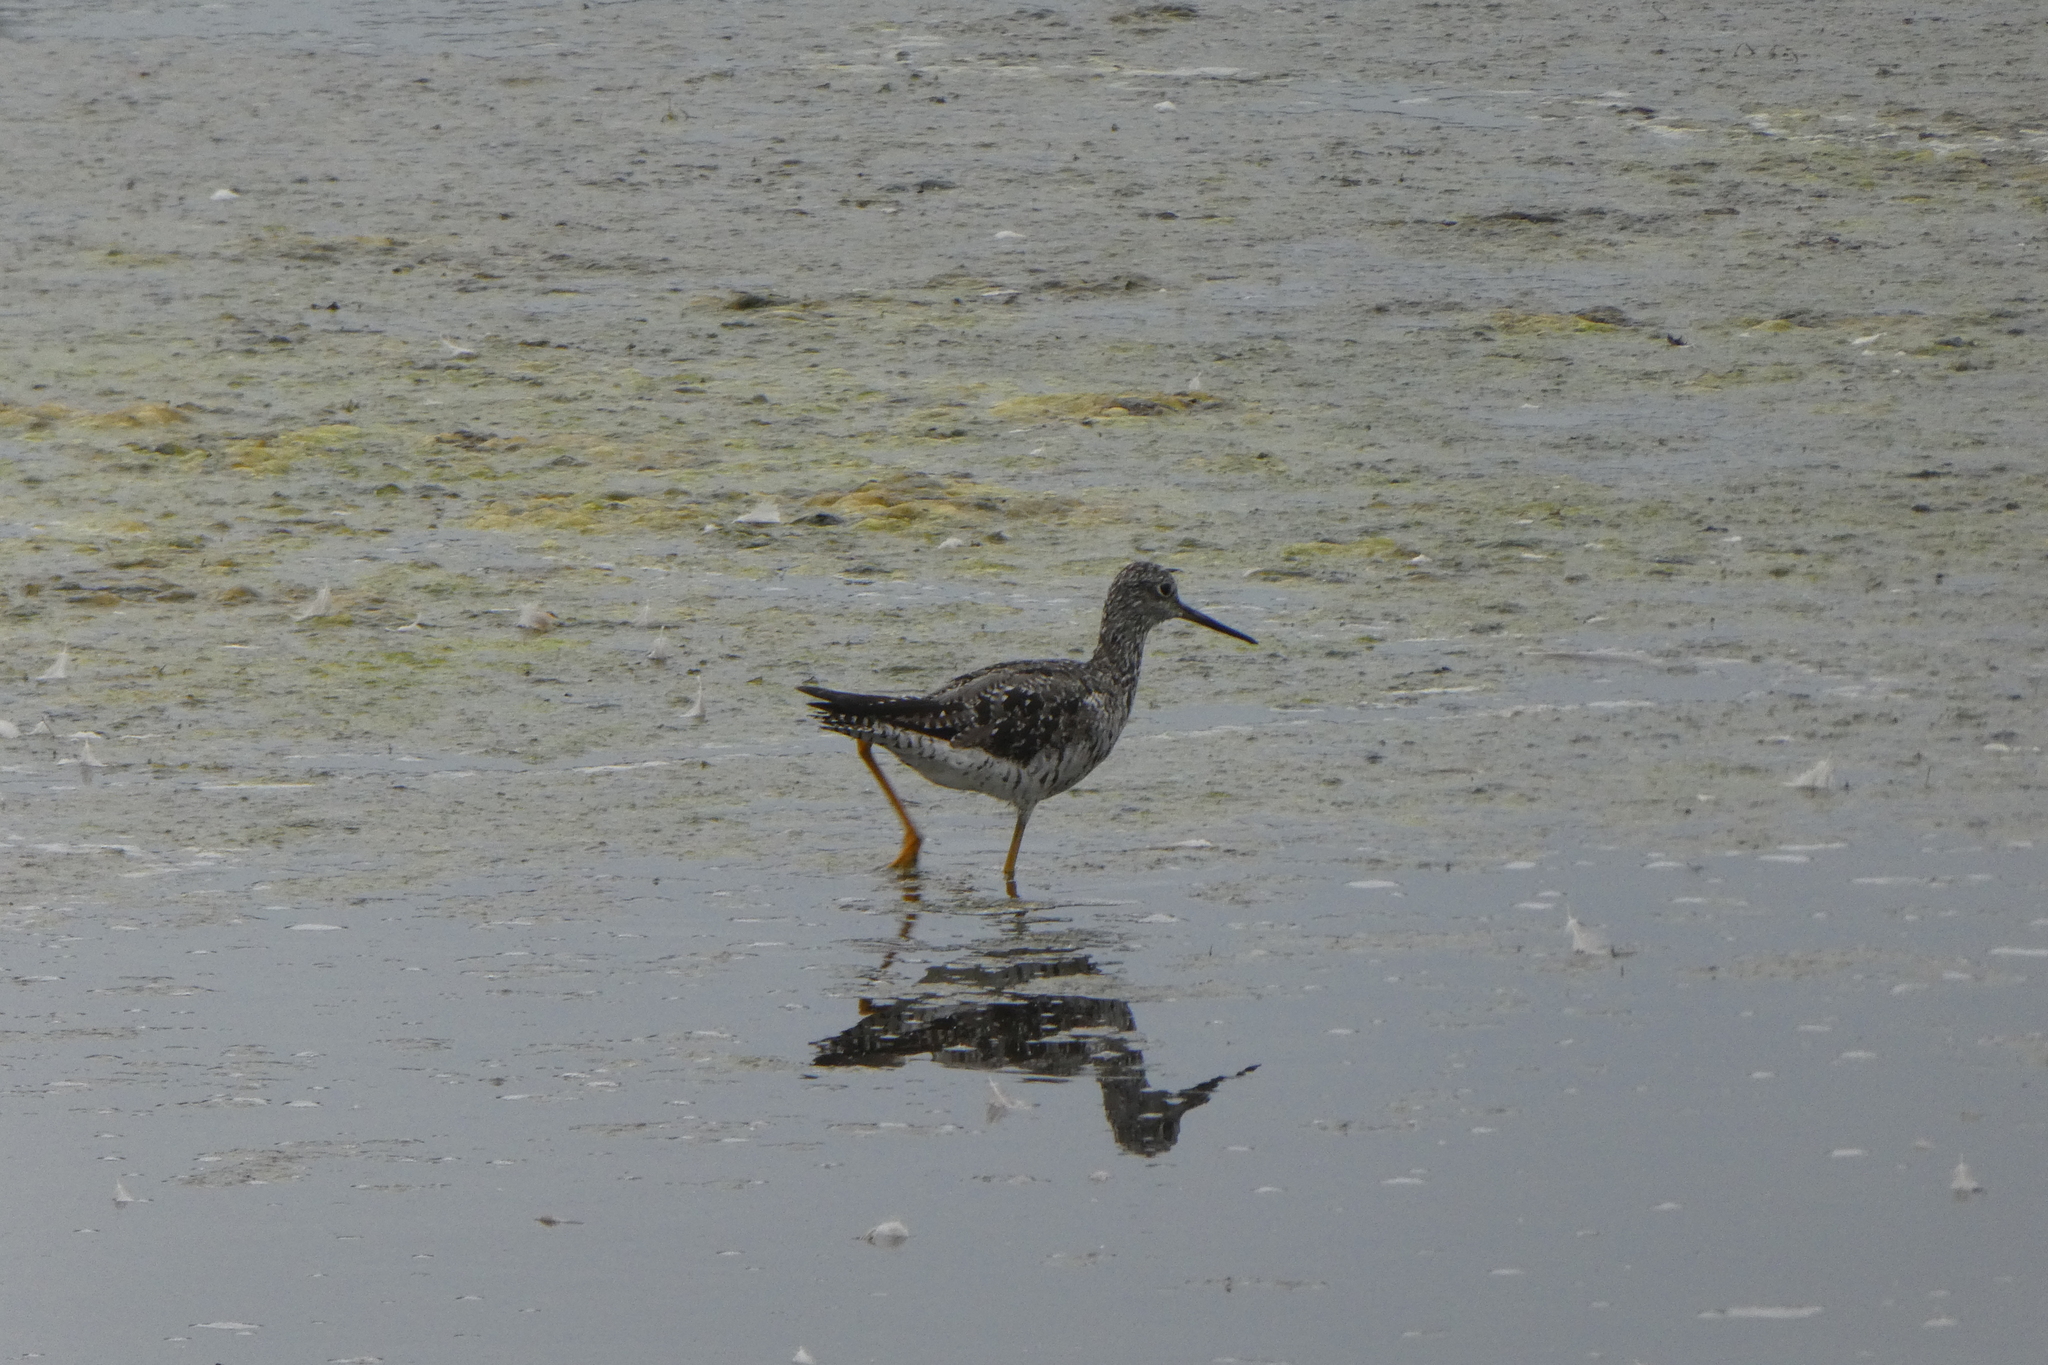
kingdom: Animalia
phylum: Chordata
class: Aves
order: Charadriiformes
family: Scolopacidae
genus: Tringa
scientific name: Tringa melanoleuca
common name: Greater yellowlegs
